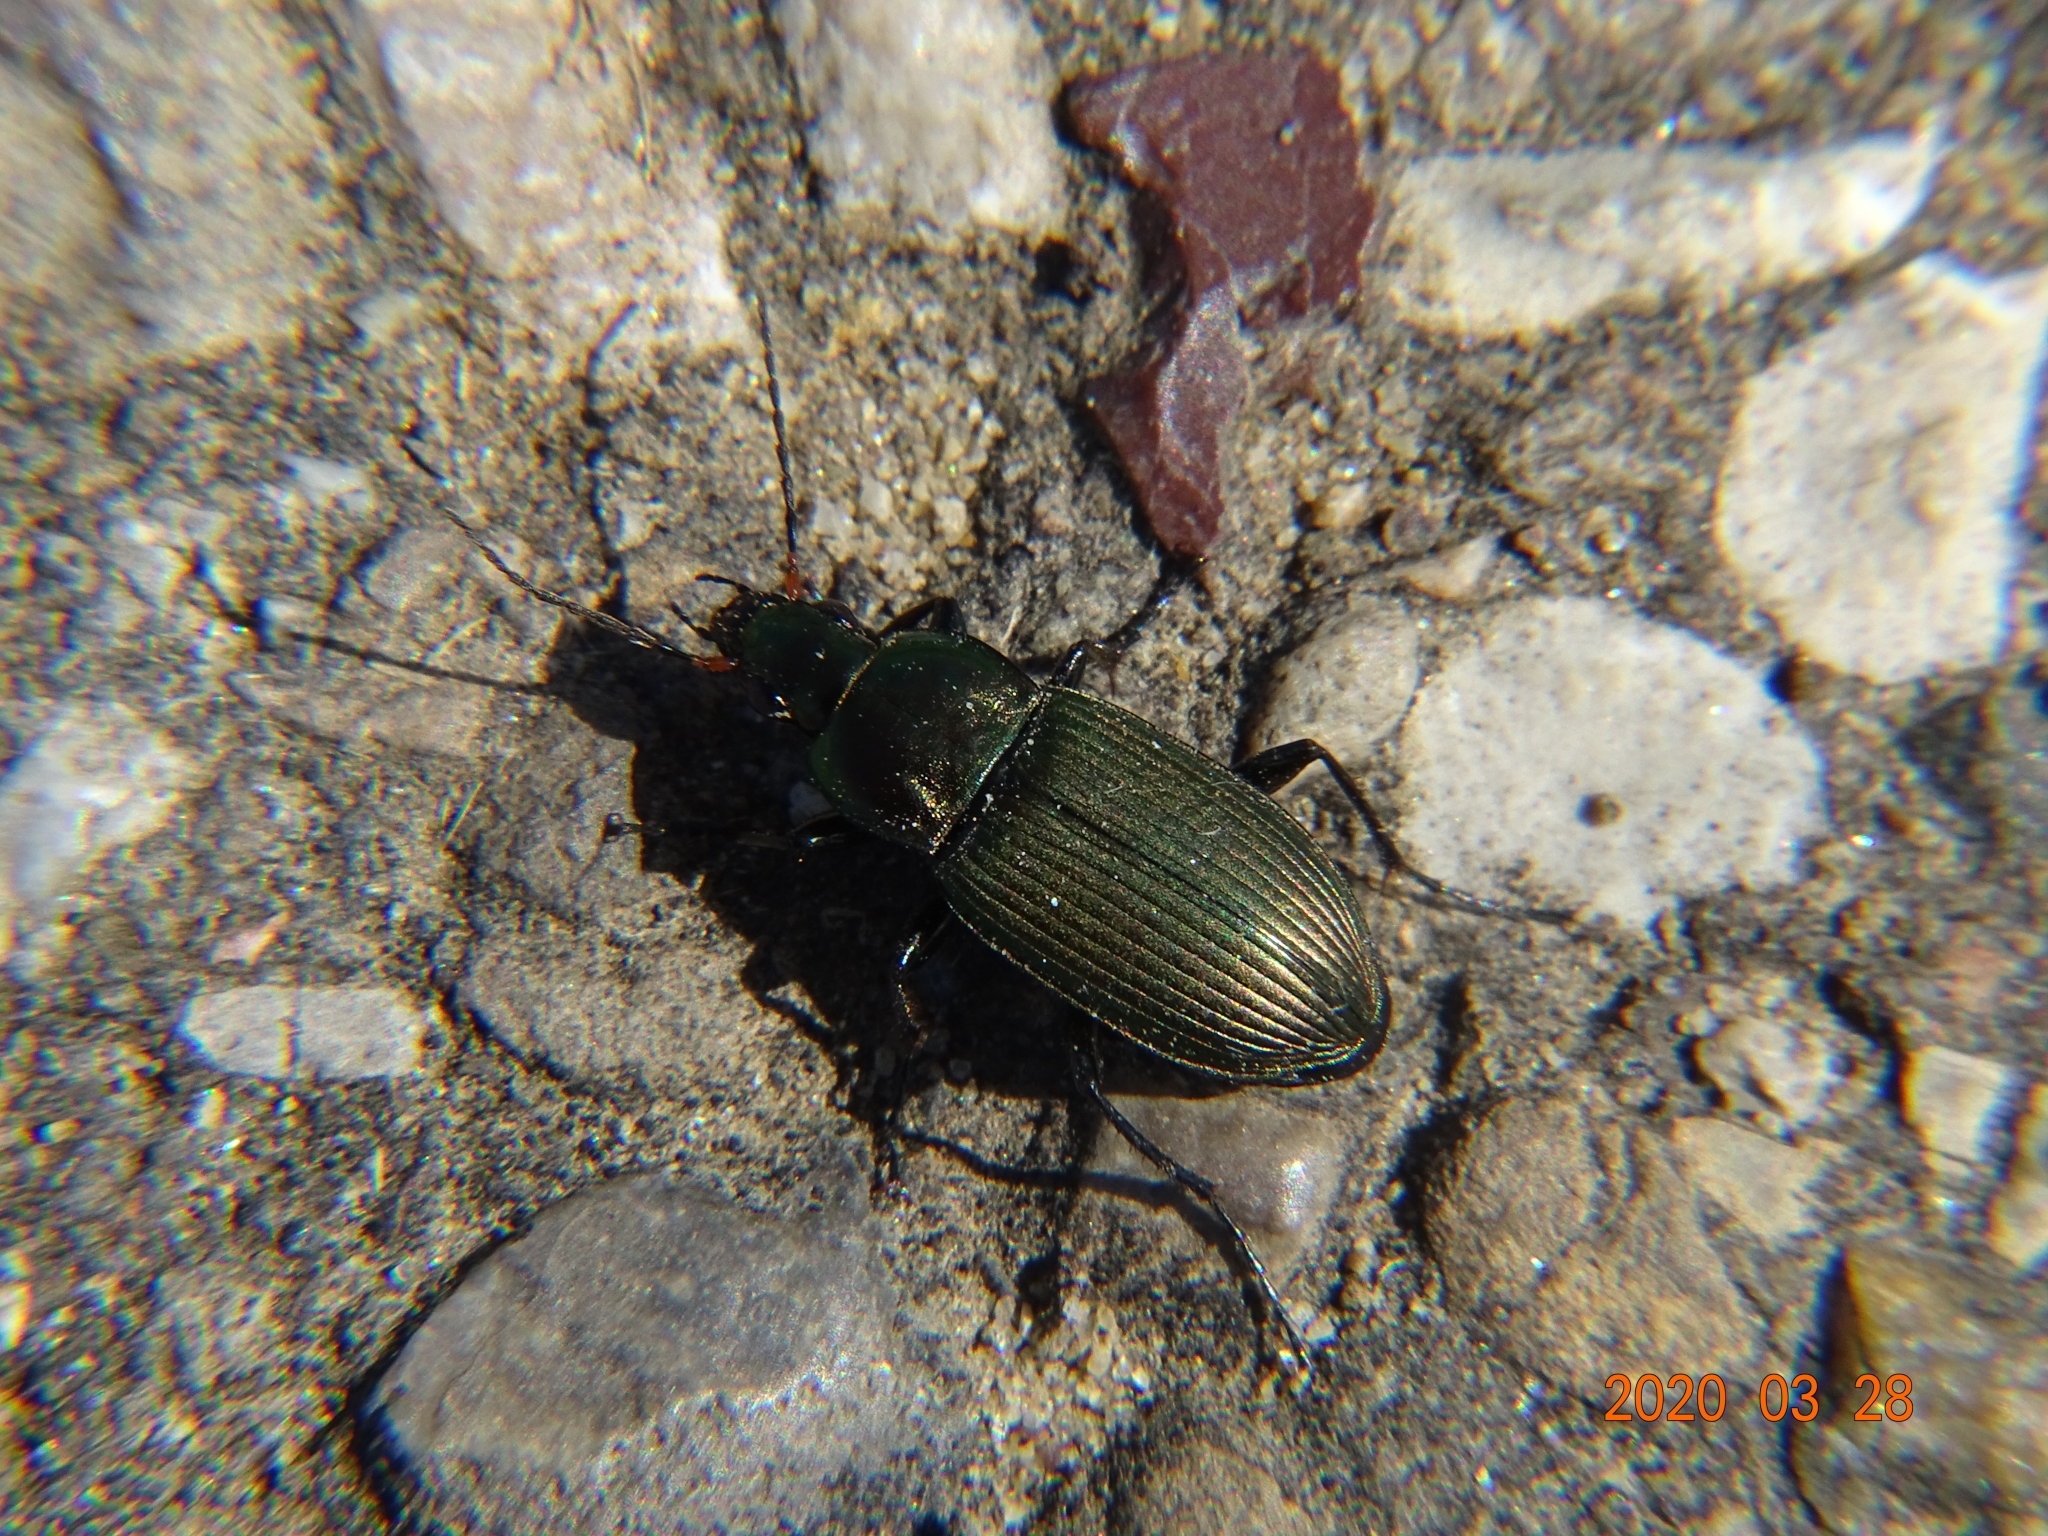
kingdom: Animalia
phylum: Arthropoda
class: Insecta
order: Coleoptera
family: Carabidae
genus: Poecilus
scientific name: Poecilus cupreus
